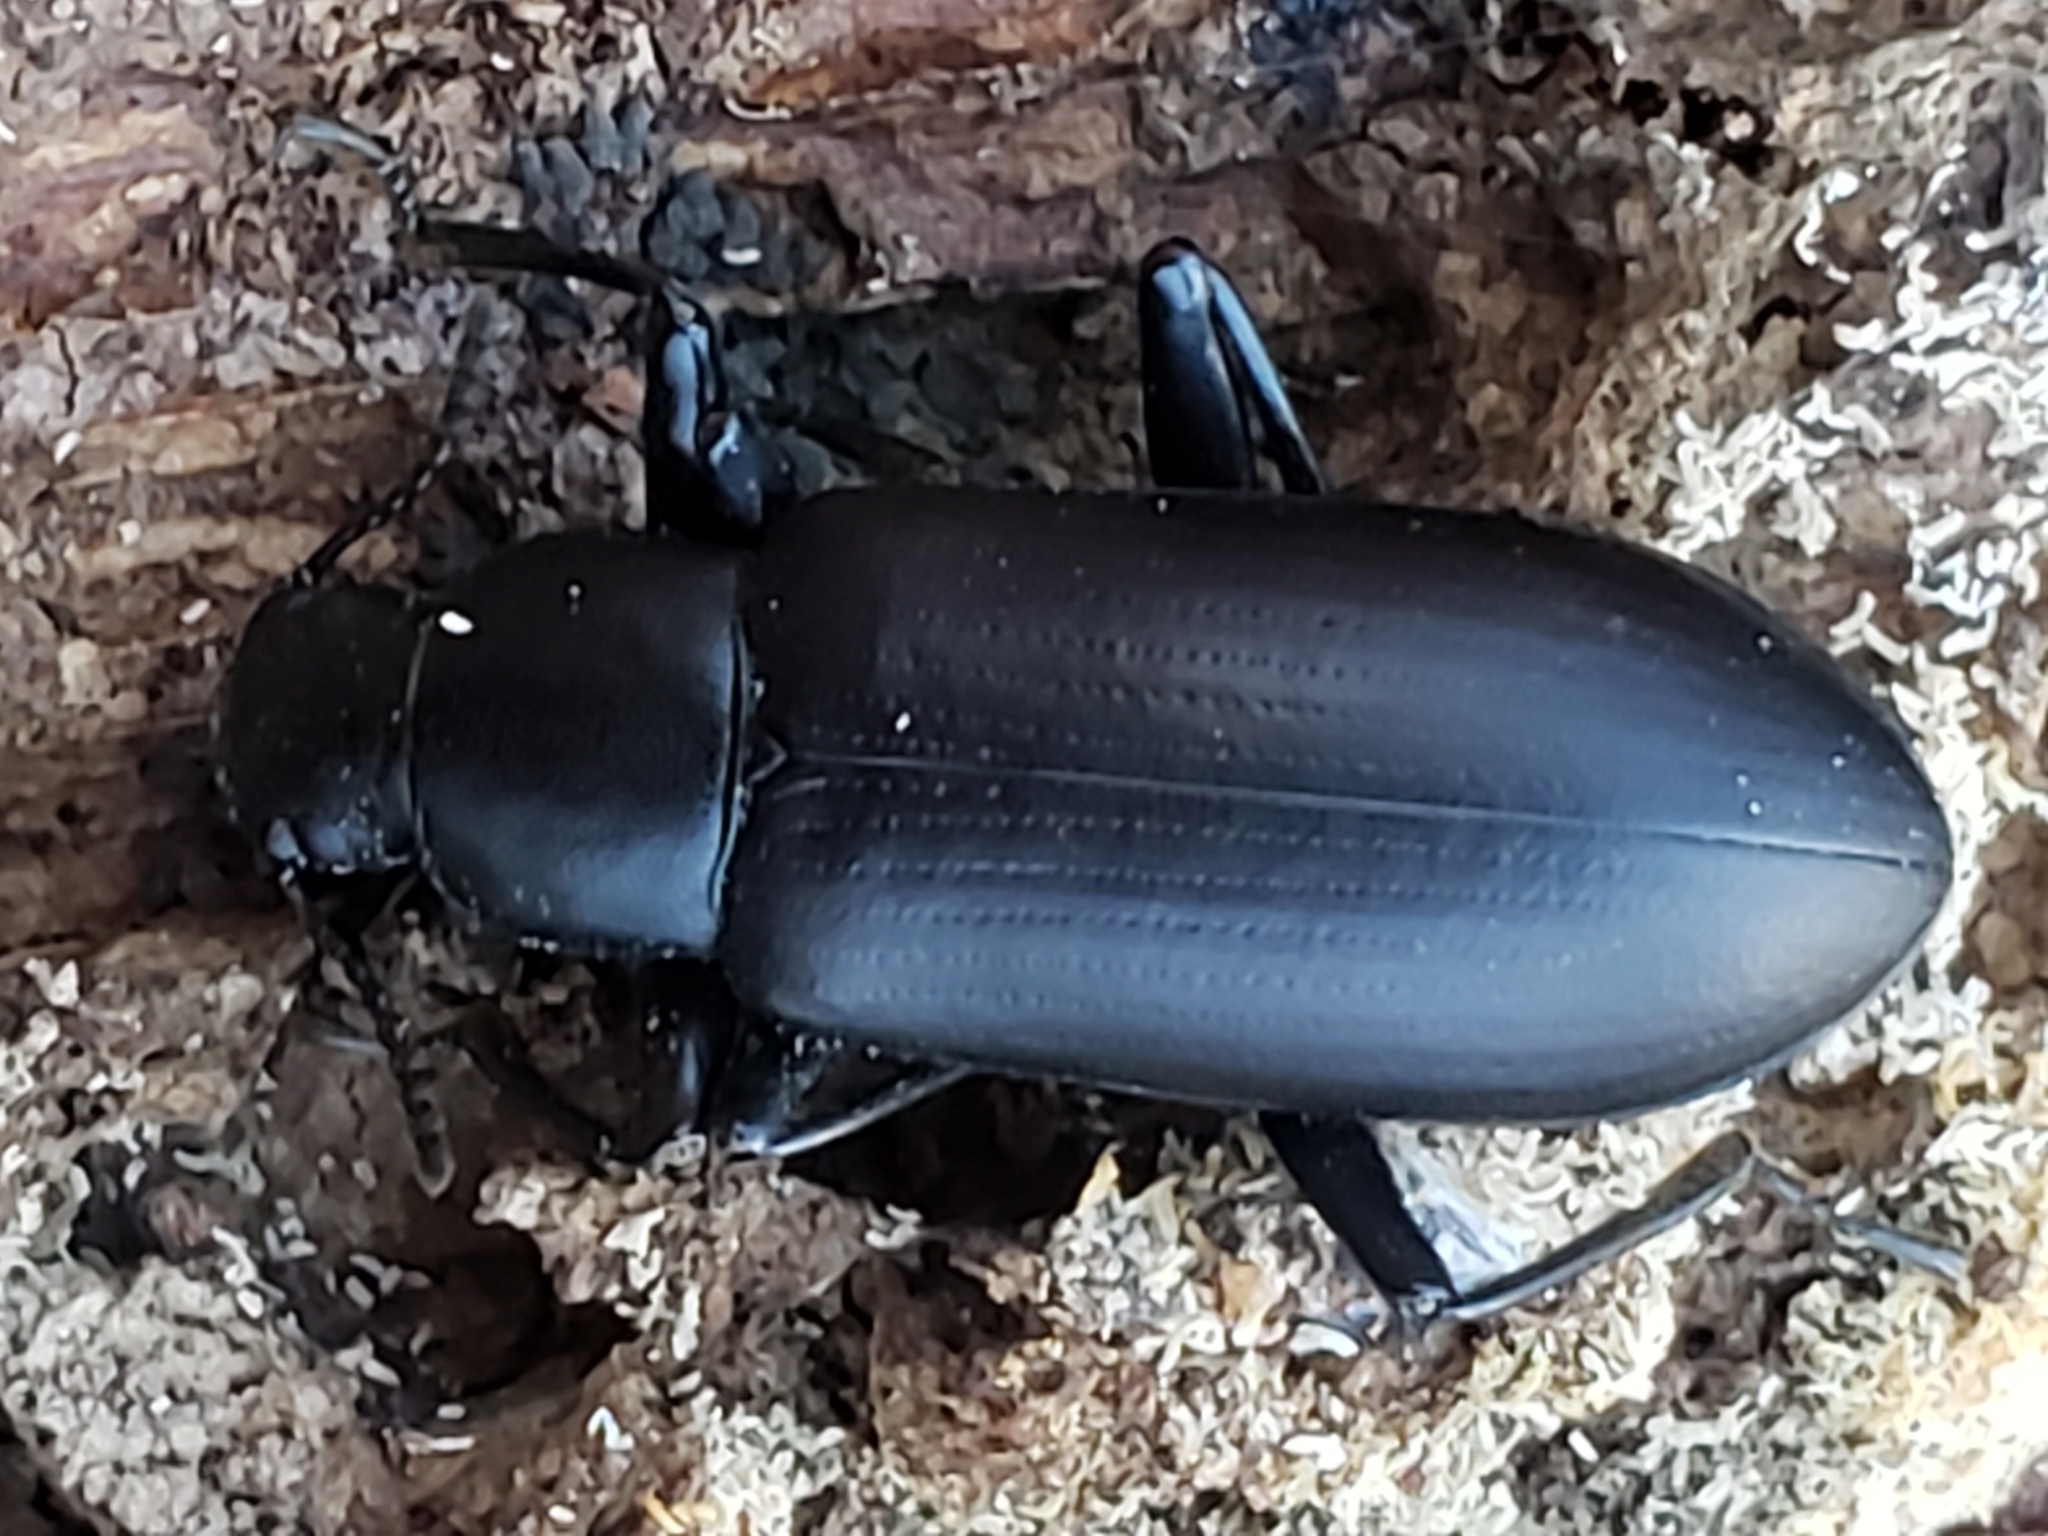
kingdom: Animalia
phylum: Arthropoda
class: Insecta
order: Coleoptera
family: Tenebrionidae
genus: Alobates
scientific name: Alobates
